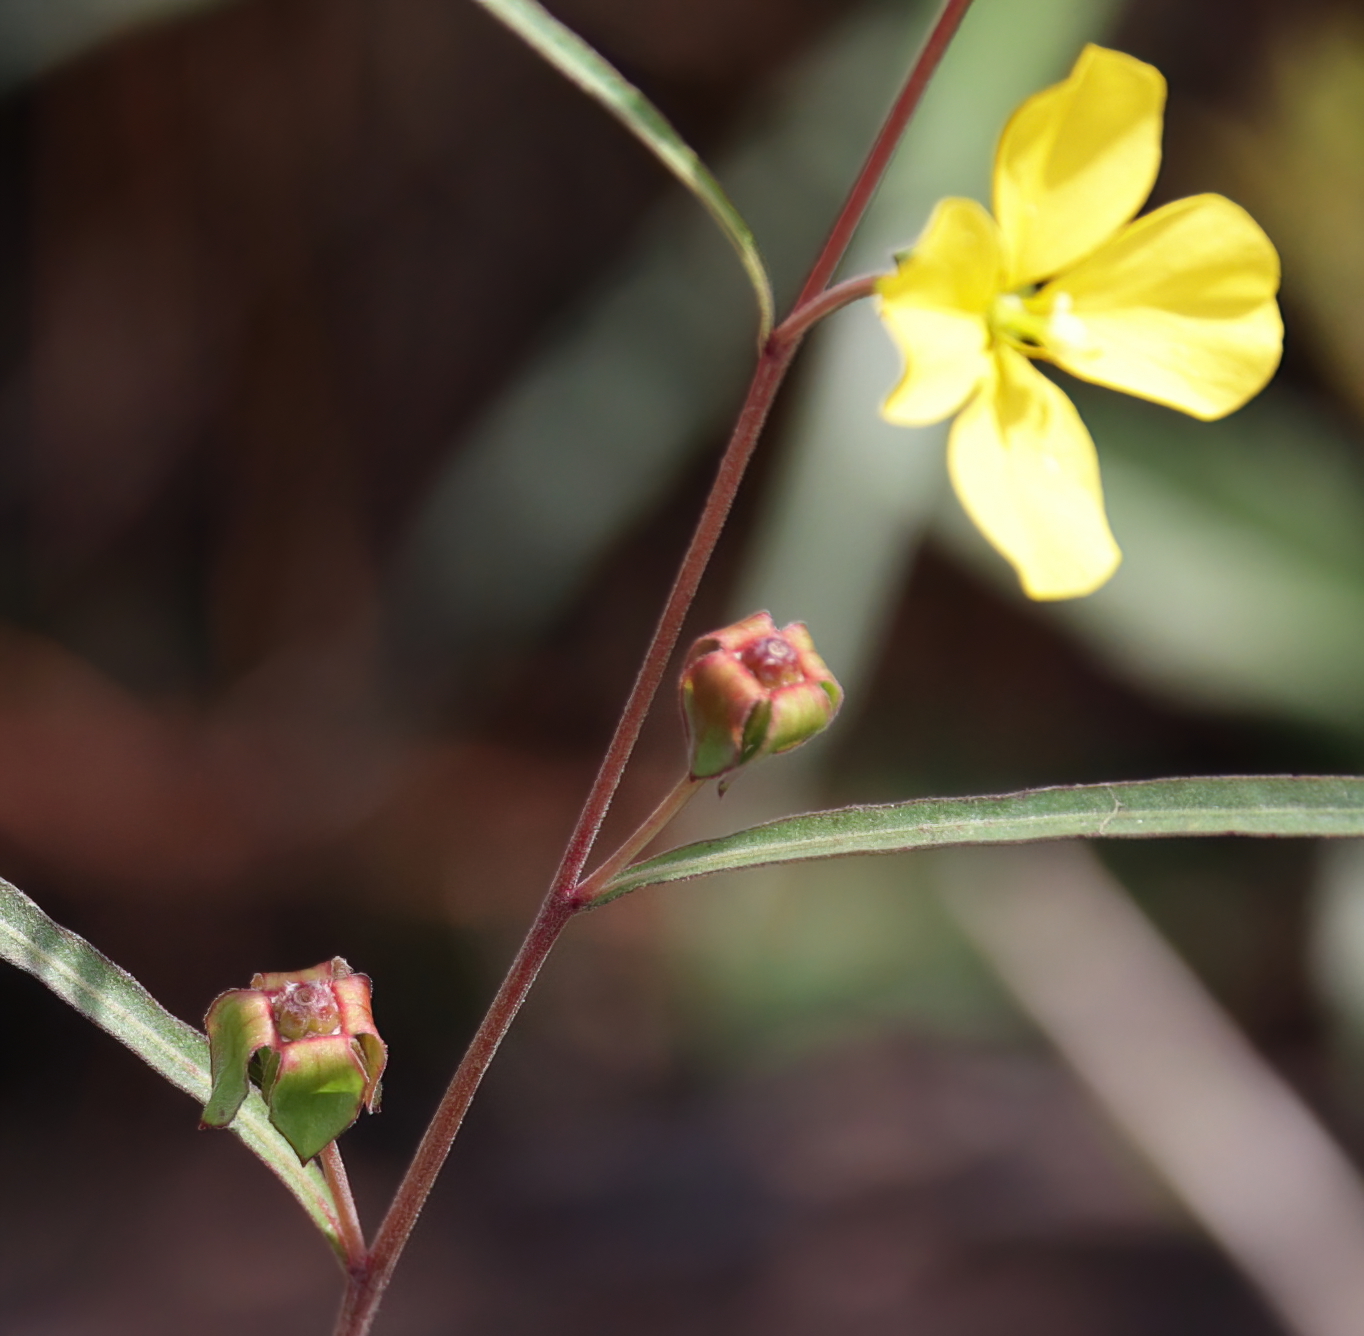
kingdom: Plantae
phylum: Tracheophyta
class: Magnoliopsida
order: Myrtales
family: Onagraceae
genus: Ludwigia
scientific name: Ludwigia maritima
